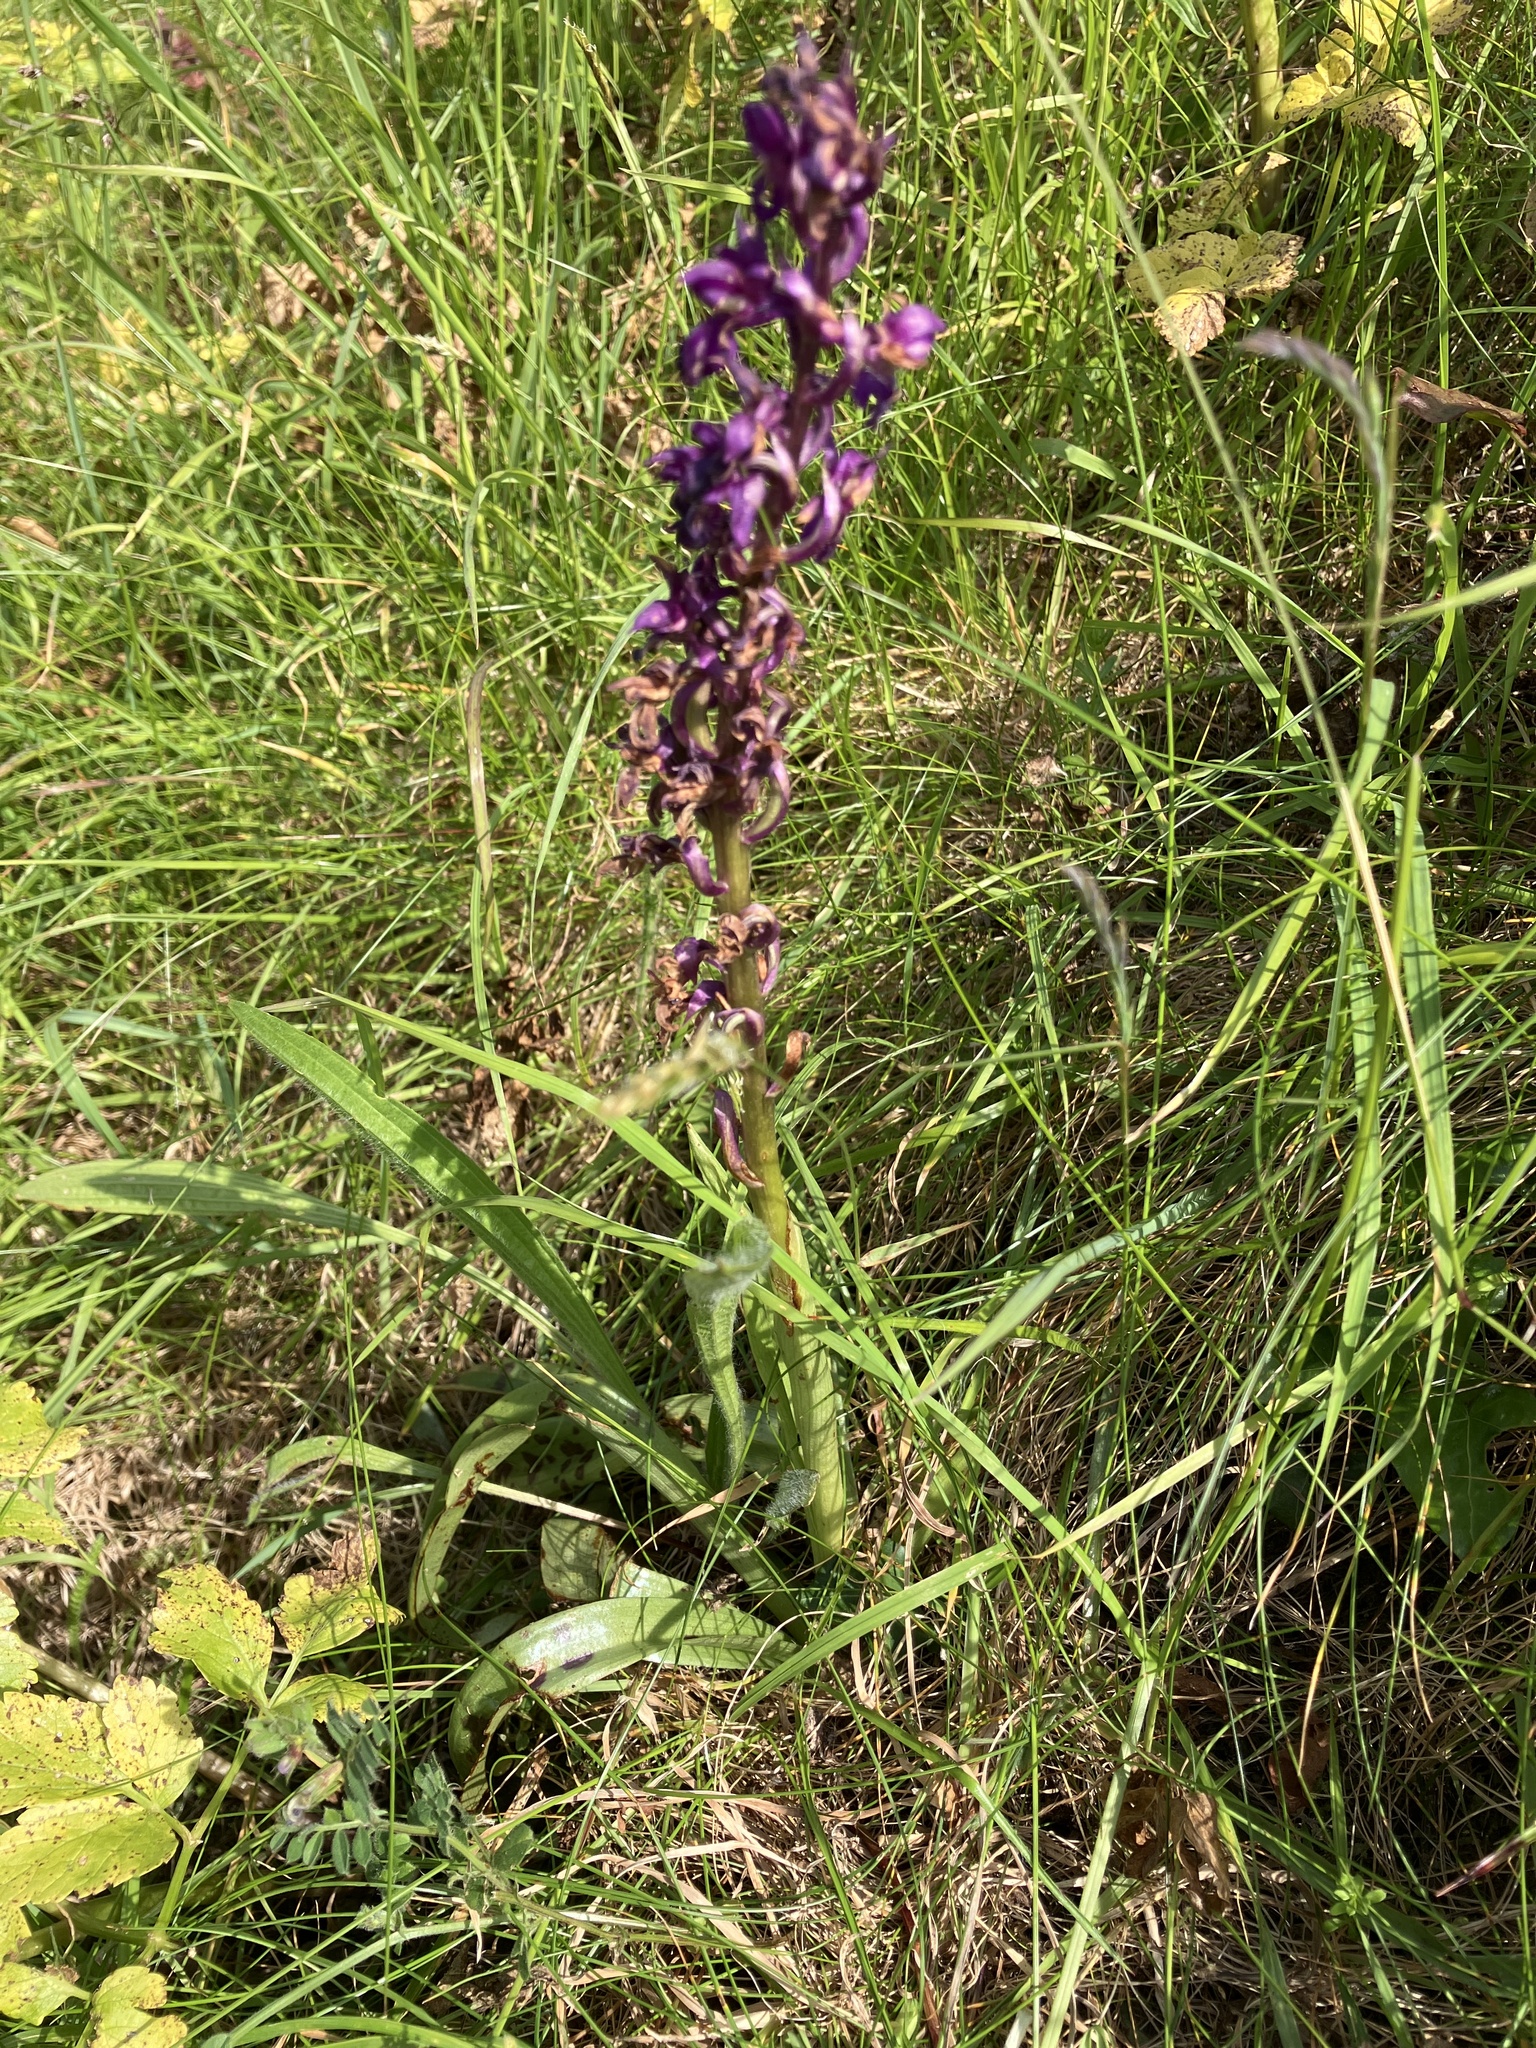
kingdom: Plantae
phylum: Tracheophyta
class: Liliopsida
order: Asparagales
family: Orchidaceae
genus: Orchis
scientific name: Orchis mascula
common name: Early-purple orchid
